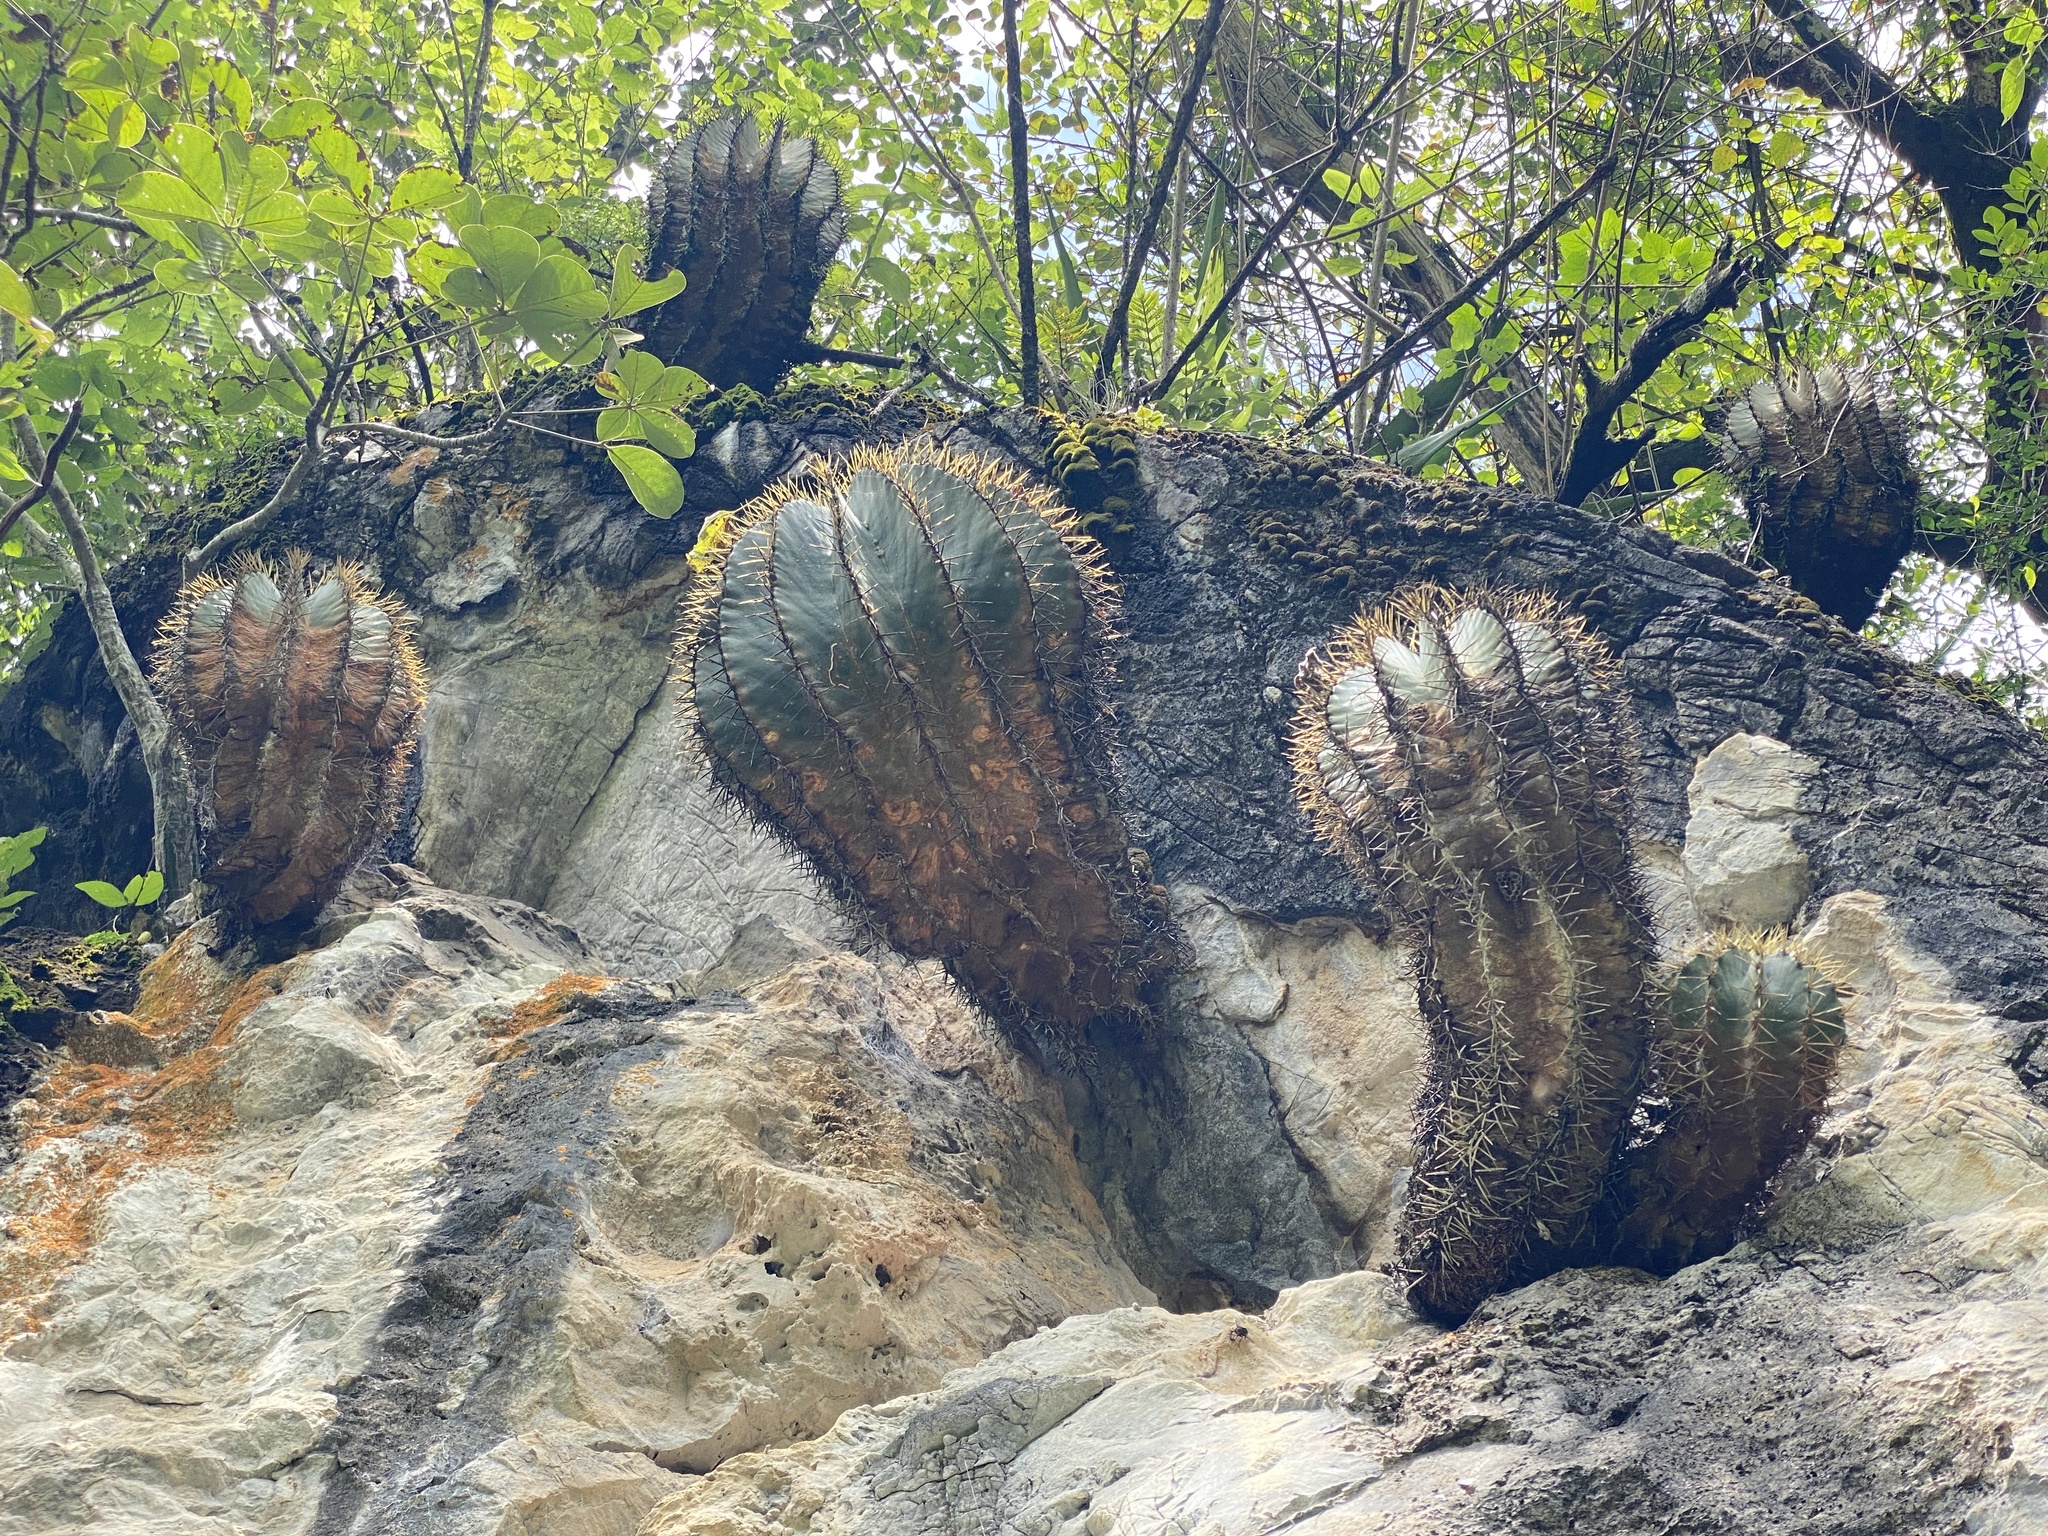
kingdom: Plantae
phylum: Tracheophyta
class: Magnoliopsida
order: Caryophyllales
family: Cactaceae
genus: Bisnaga
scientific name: Bisnaga glaucescens
